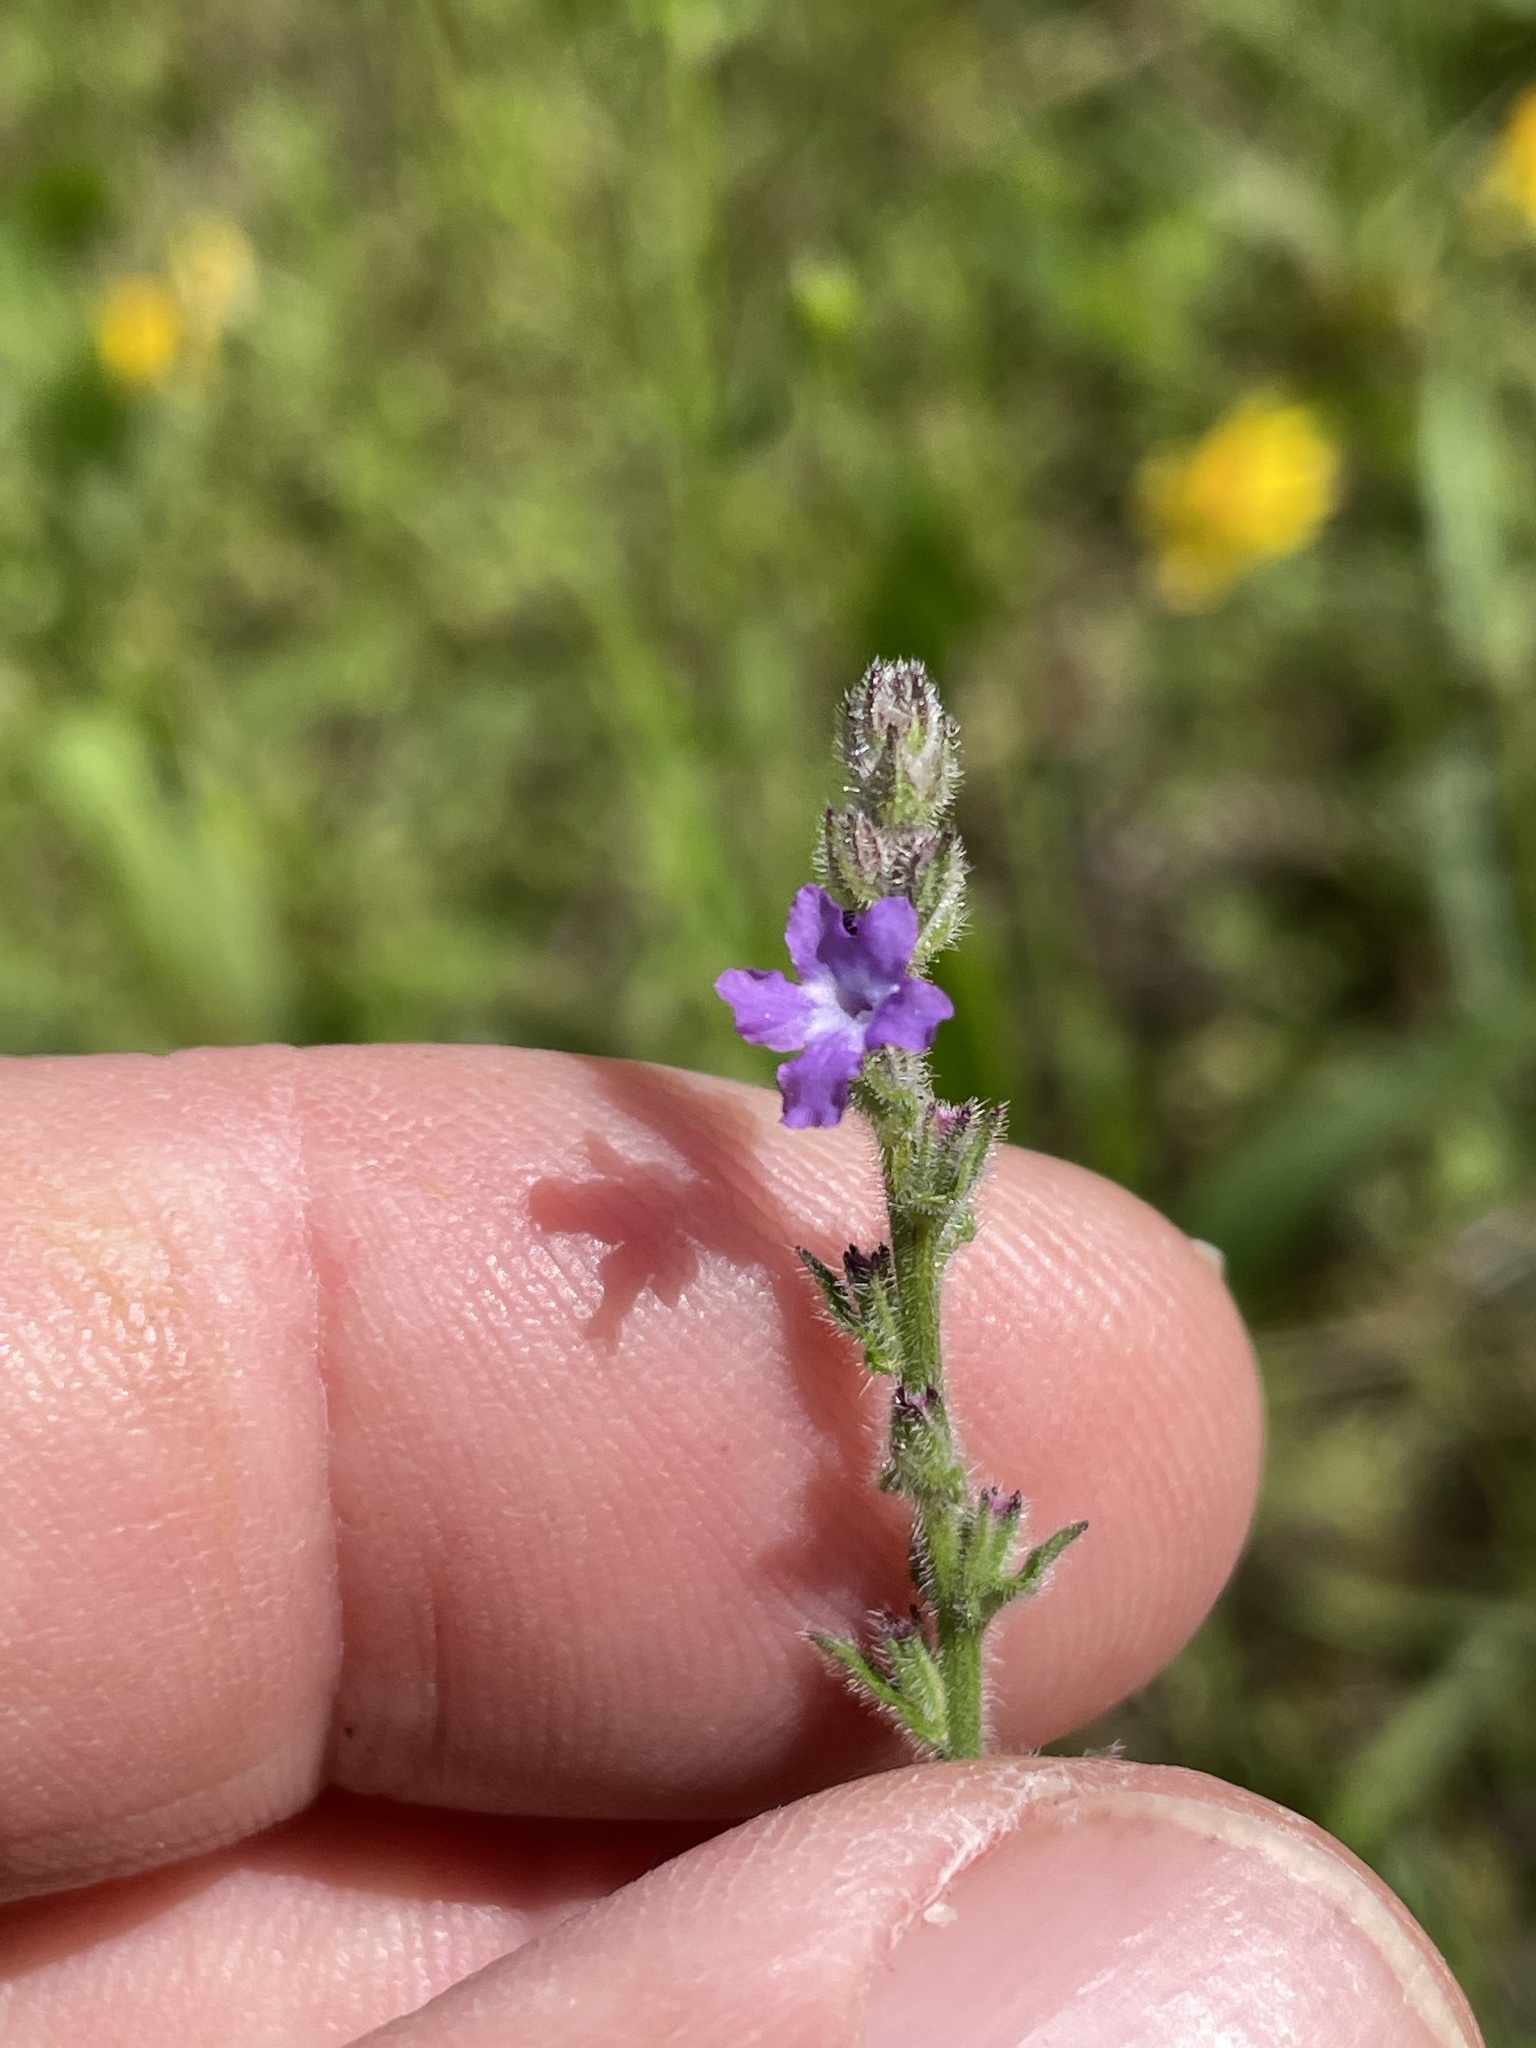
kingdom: Plantae
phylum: Tracheophyta
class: Magnoliopsida
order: Lamiales
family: Verbenaceae
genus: Verbena
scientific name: Verbena canescens
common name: Gray vervain
